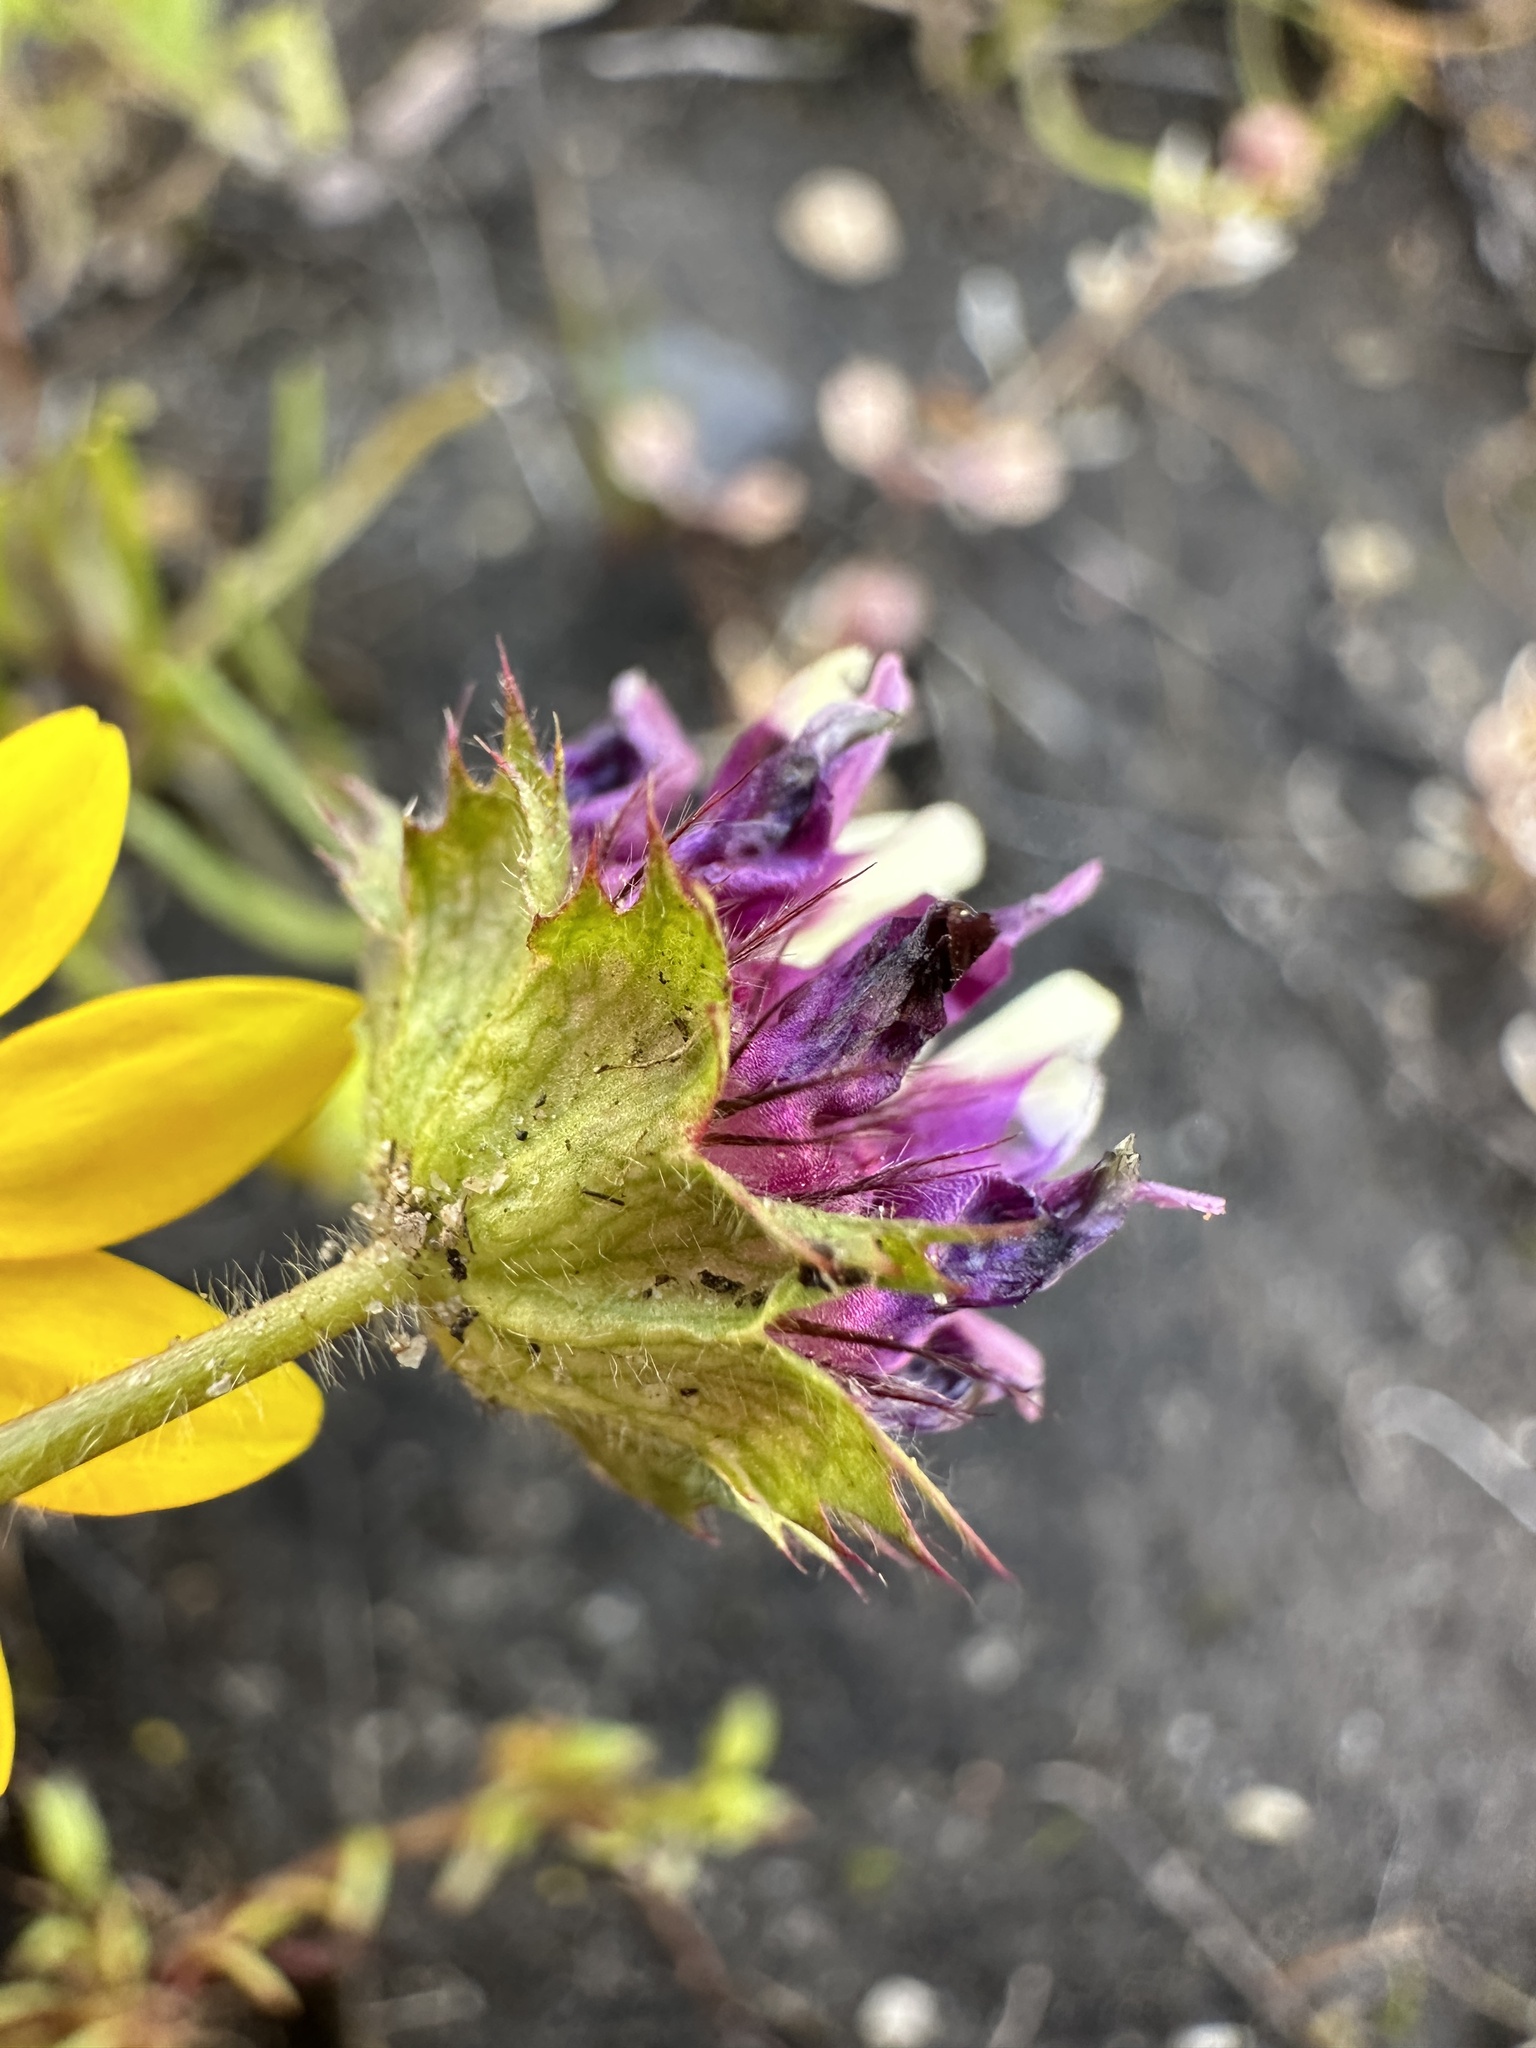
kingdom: Plantae
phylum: Tracheophyta
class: Magnoliopsida
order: Fabales
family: Fabaceae
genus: Trifolium
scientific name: Trifolium barbigerum
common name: Bearded clover
